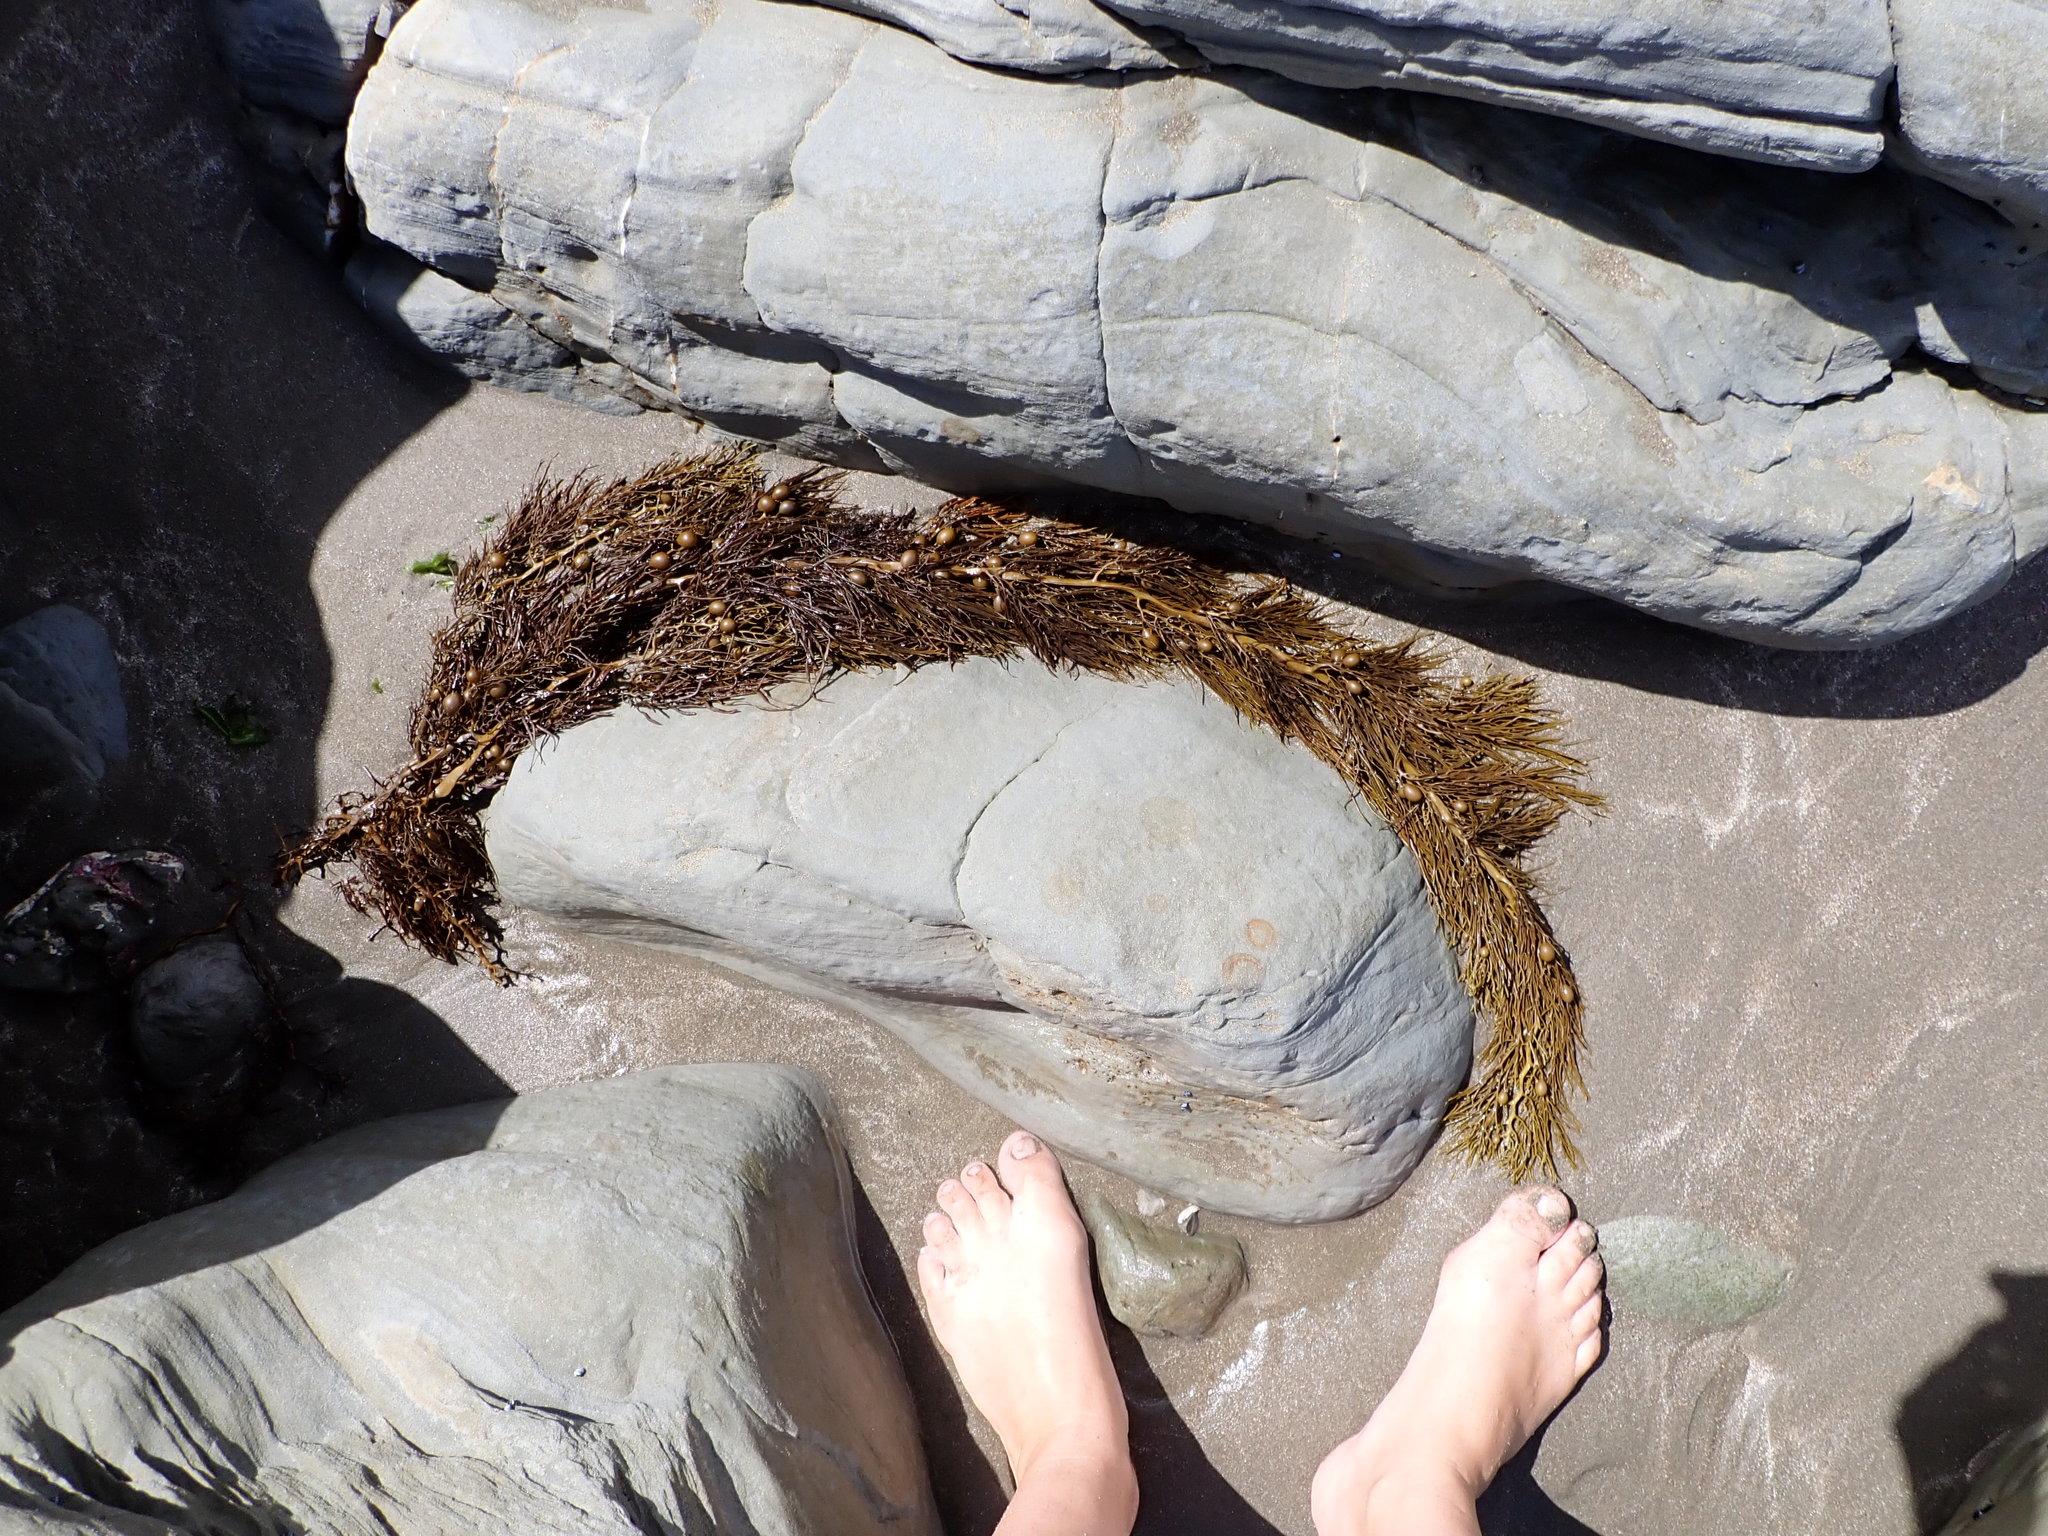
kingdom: Chromista
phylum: Ochrophyta
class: Phaeophyceae
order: Fucales
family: Sargassaceae
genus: Cystophora
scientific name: Cystophora retroflexa
